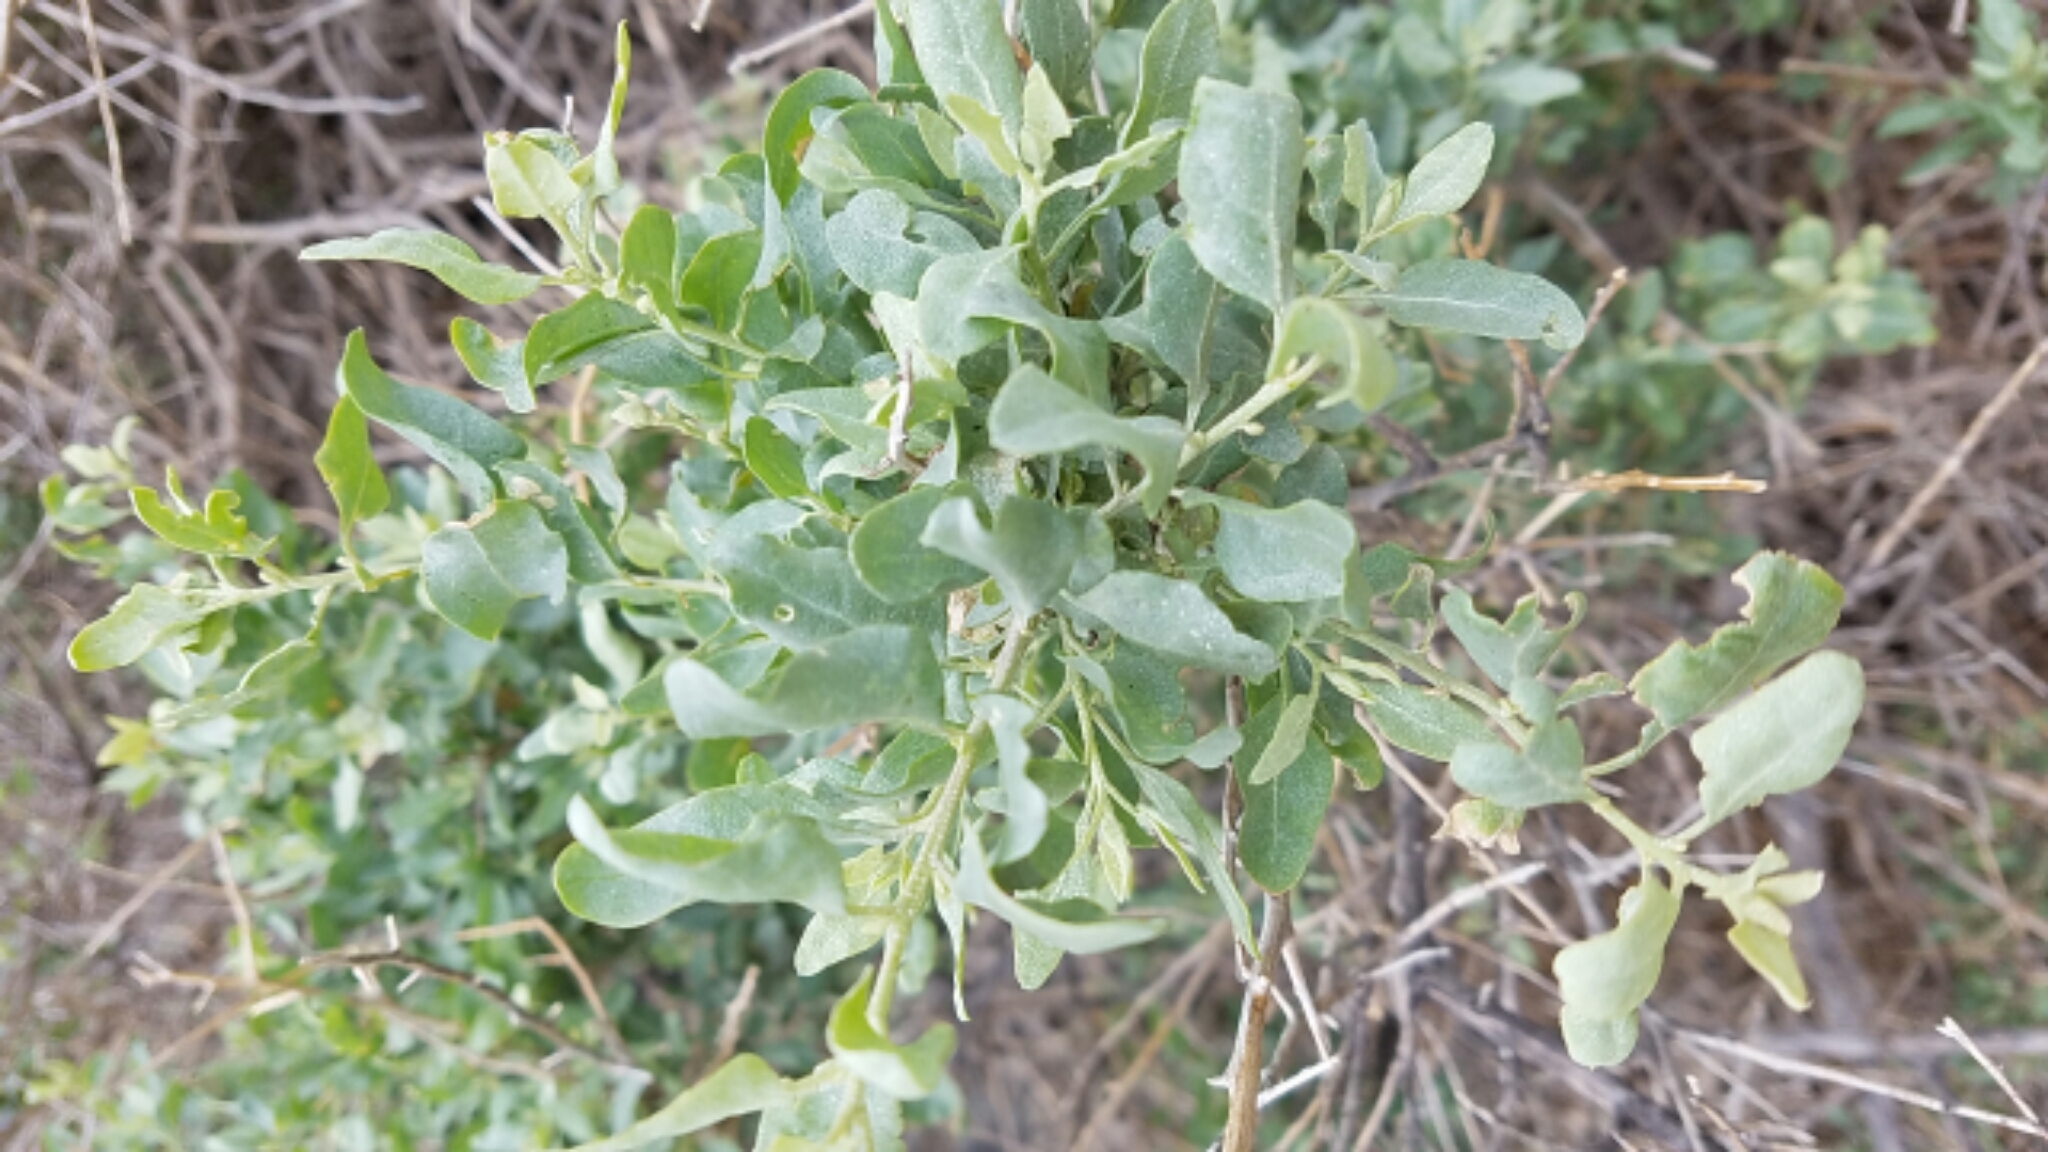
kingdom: Plantae
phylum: Tracheophyta
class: Magnoliopsida
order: Caryophyllales
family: Amaranthaceae
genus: Atriplex
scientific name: Atriplex lentiformis
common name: Big saltbush
